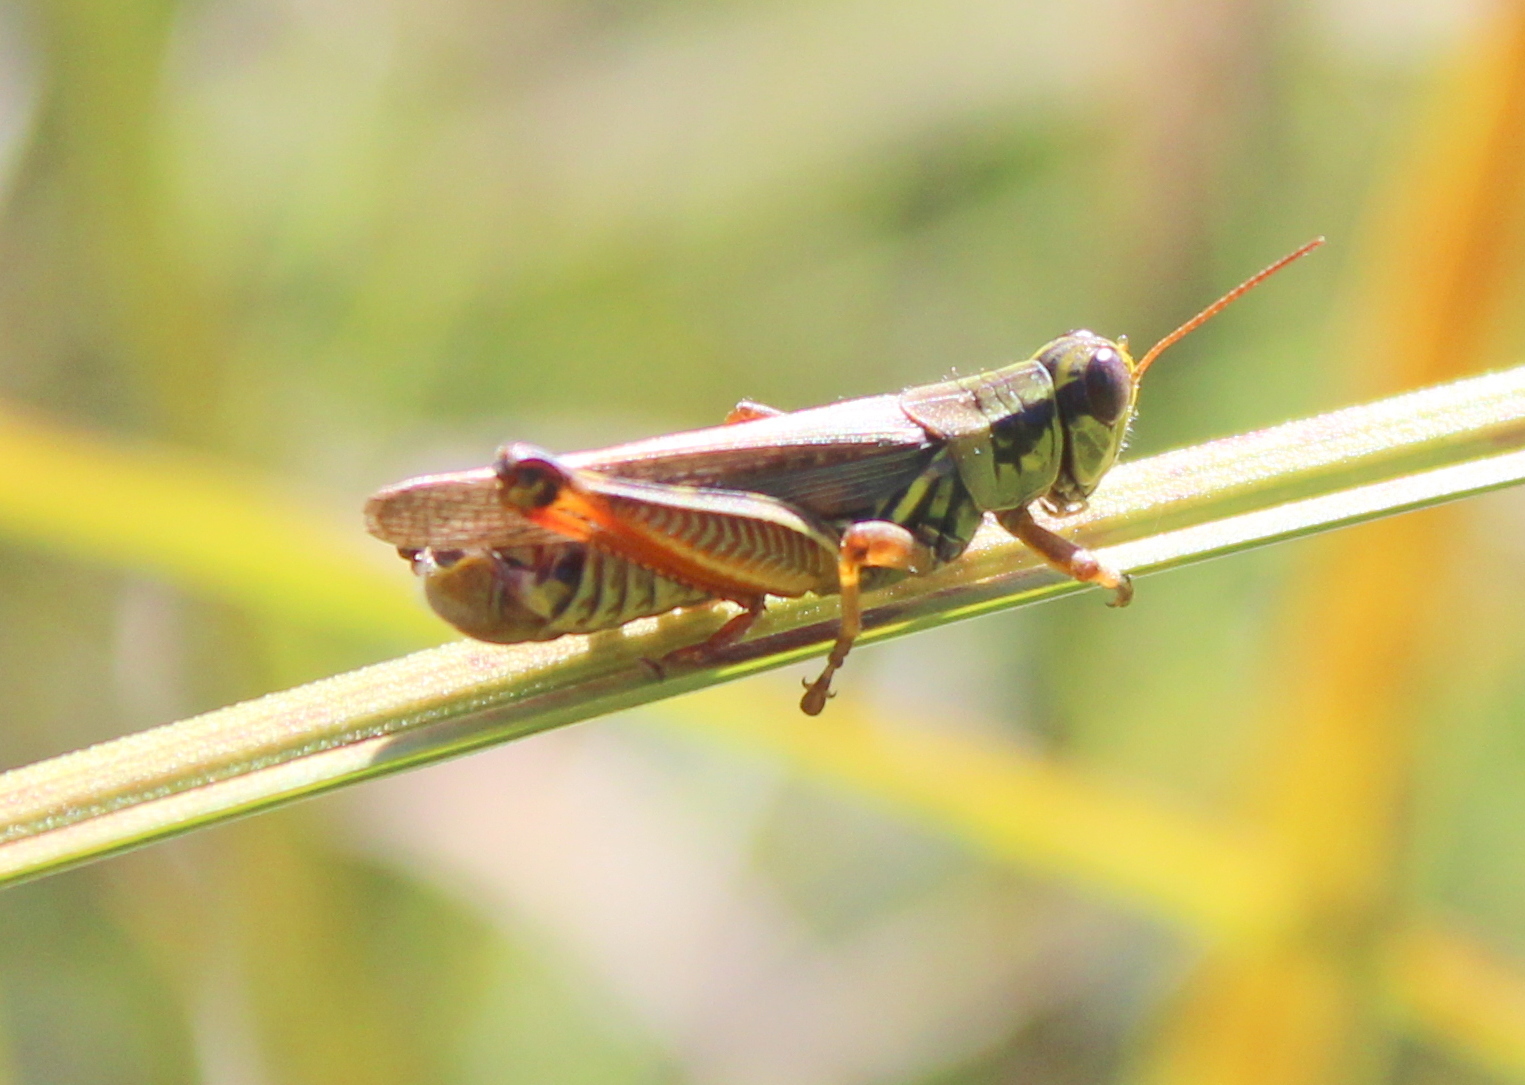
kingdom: Animalia
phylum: Arthropoda
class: Insecta
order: Orthoptera
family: Acrididae
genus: Melanoplus
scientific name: Melanoplus femurrubrum
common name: Red-legged grasshopper
